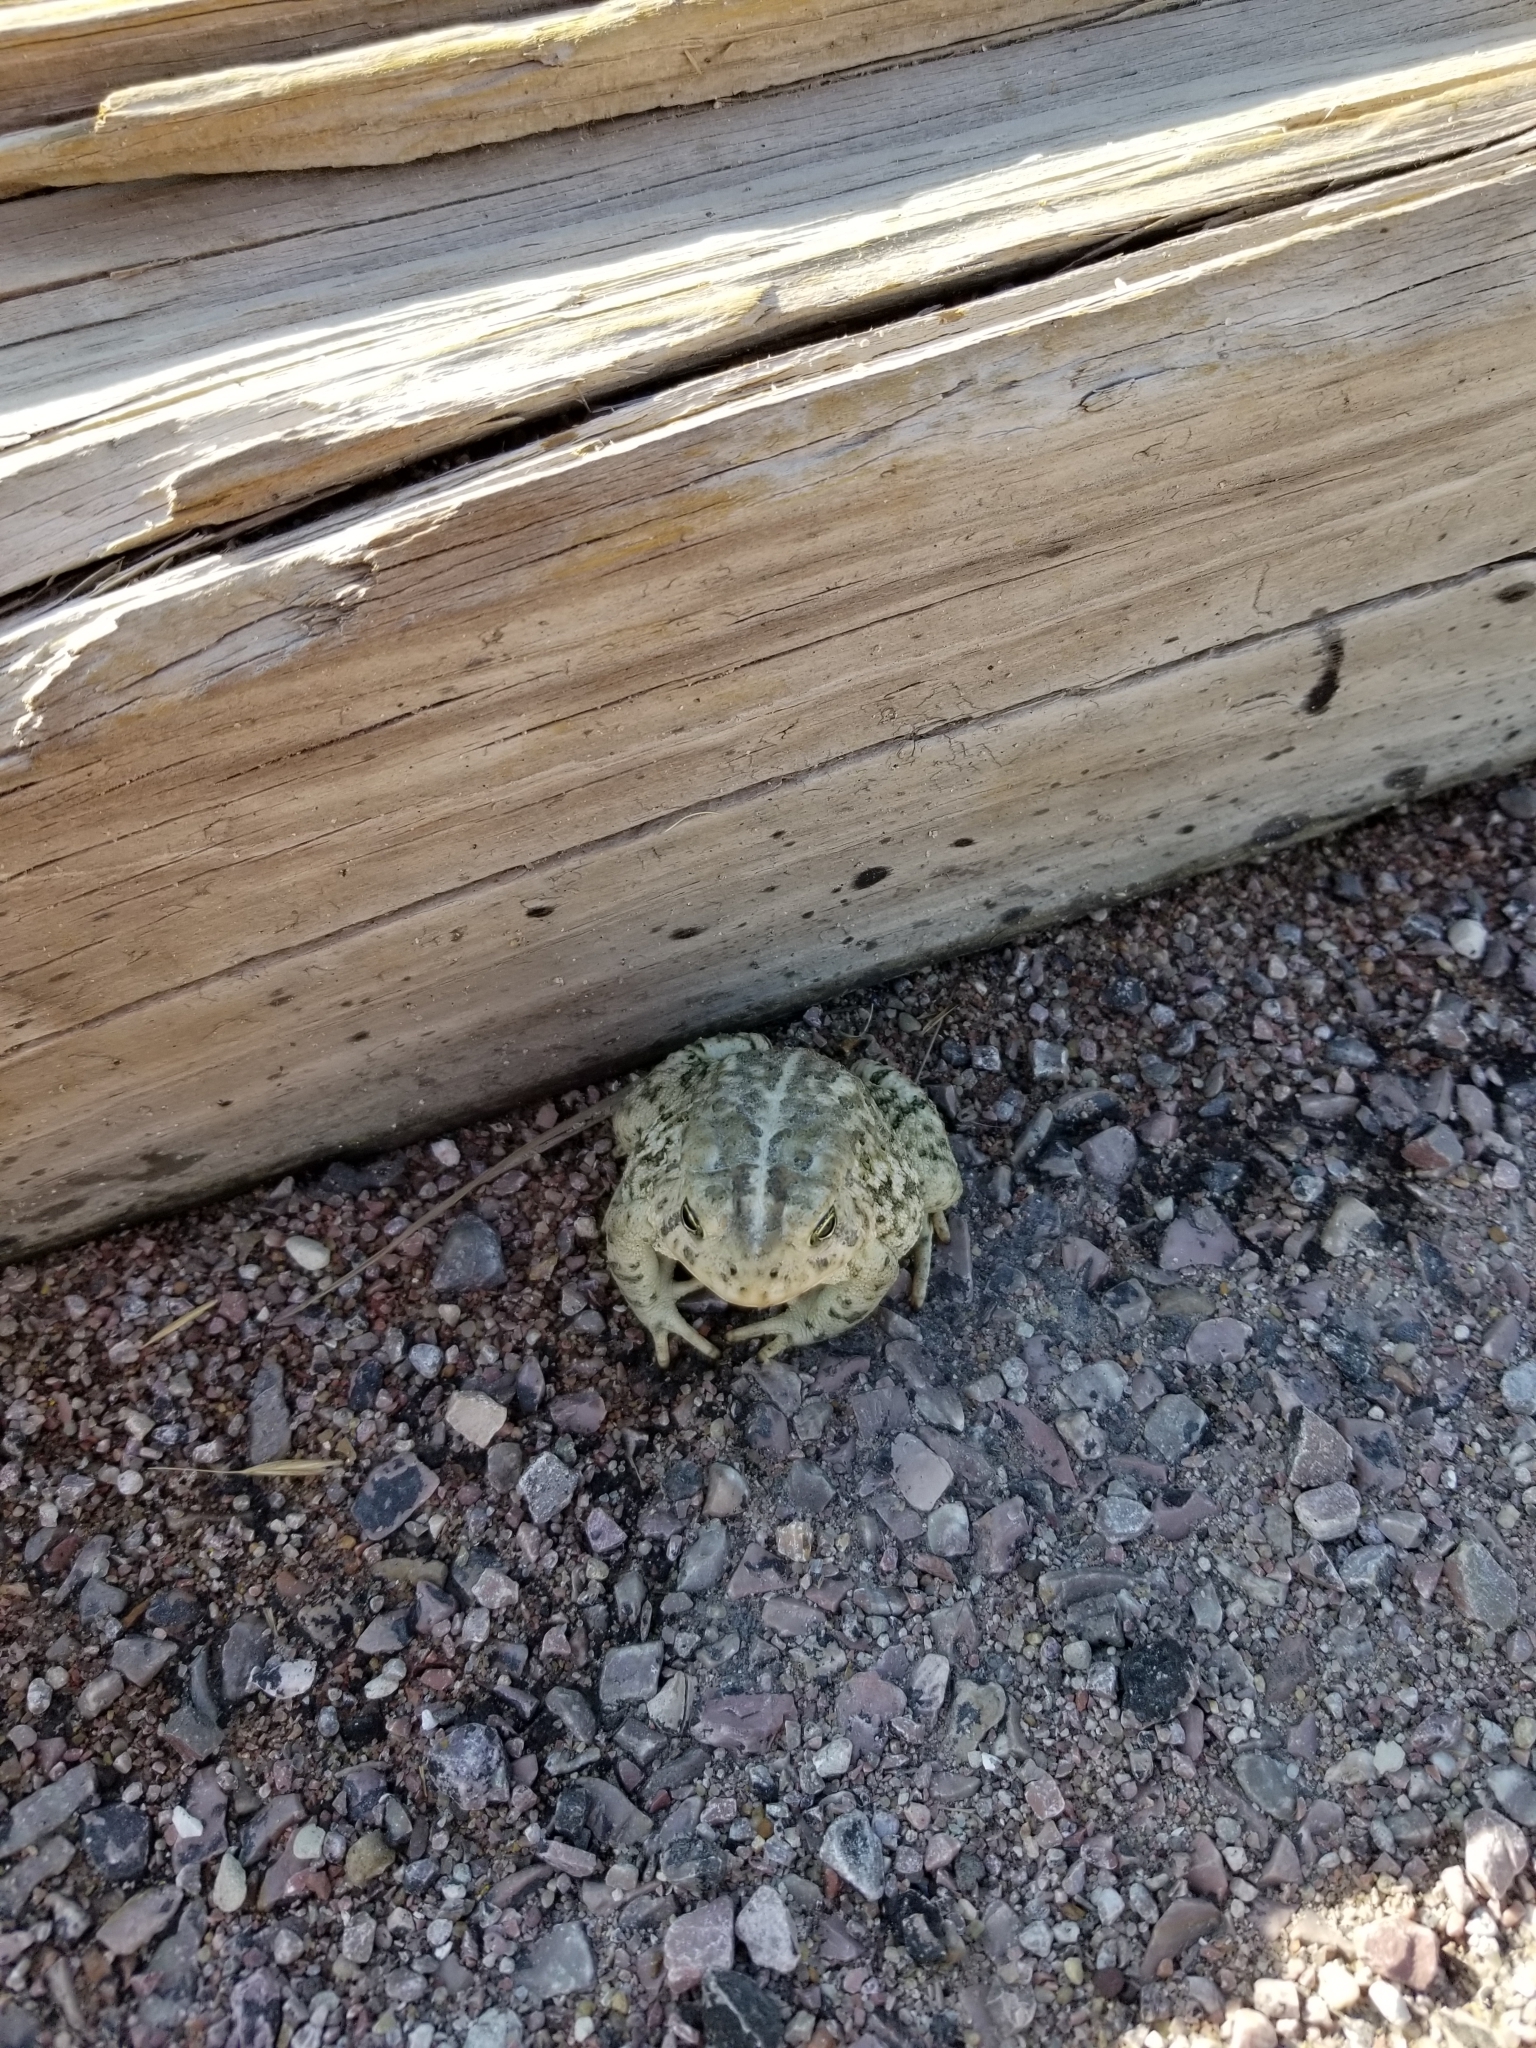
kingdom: Animalia
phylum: Chordata
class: Amphibia
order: Anura
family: Bufonidae
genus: Anaxyrus
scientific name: Anaxyrus woodhousii
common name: Woodhouse's toad
